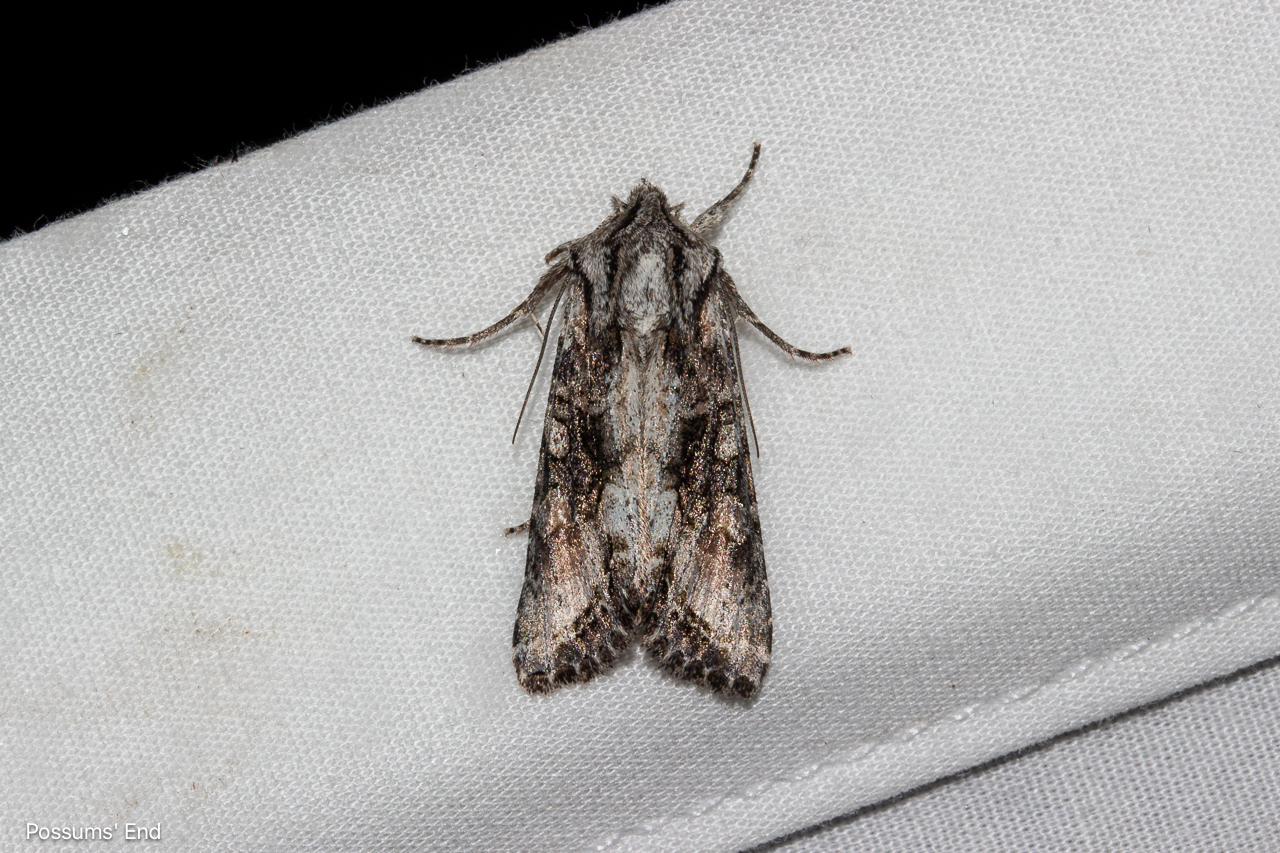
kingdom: Animalia
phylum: Arthropoda
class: Insecta
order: Lepidoptera
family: Noctuidae
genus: Ichneutica
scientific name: Ichneutica mutans
